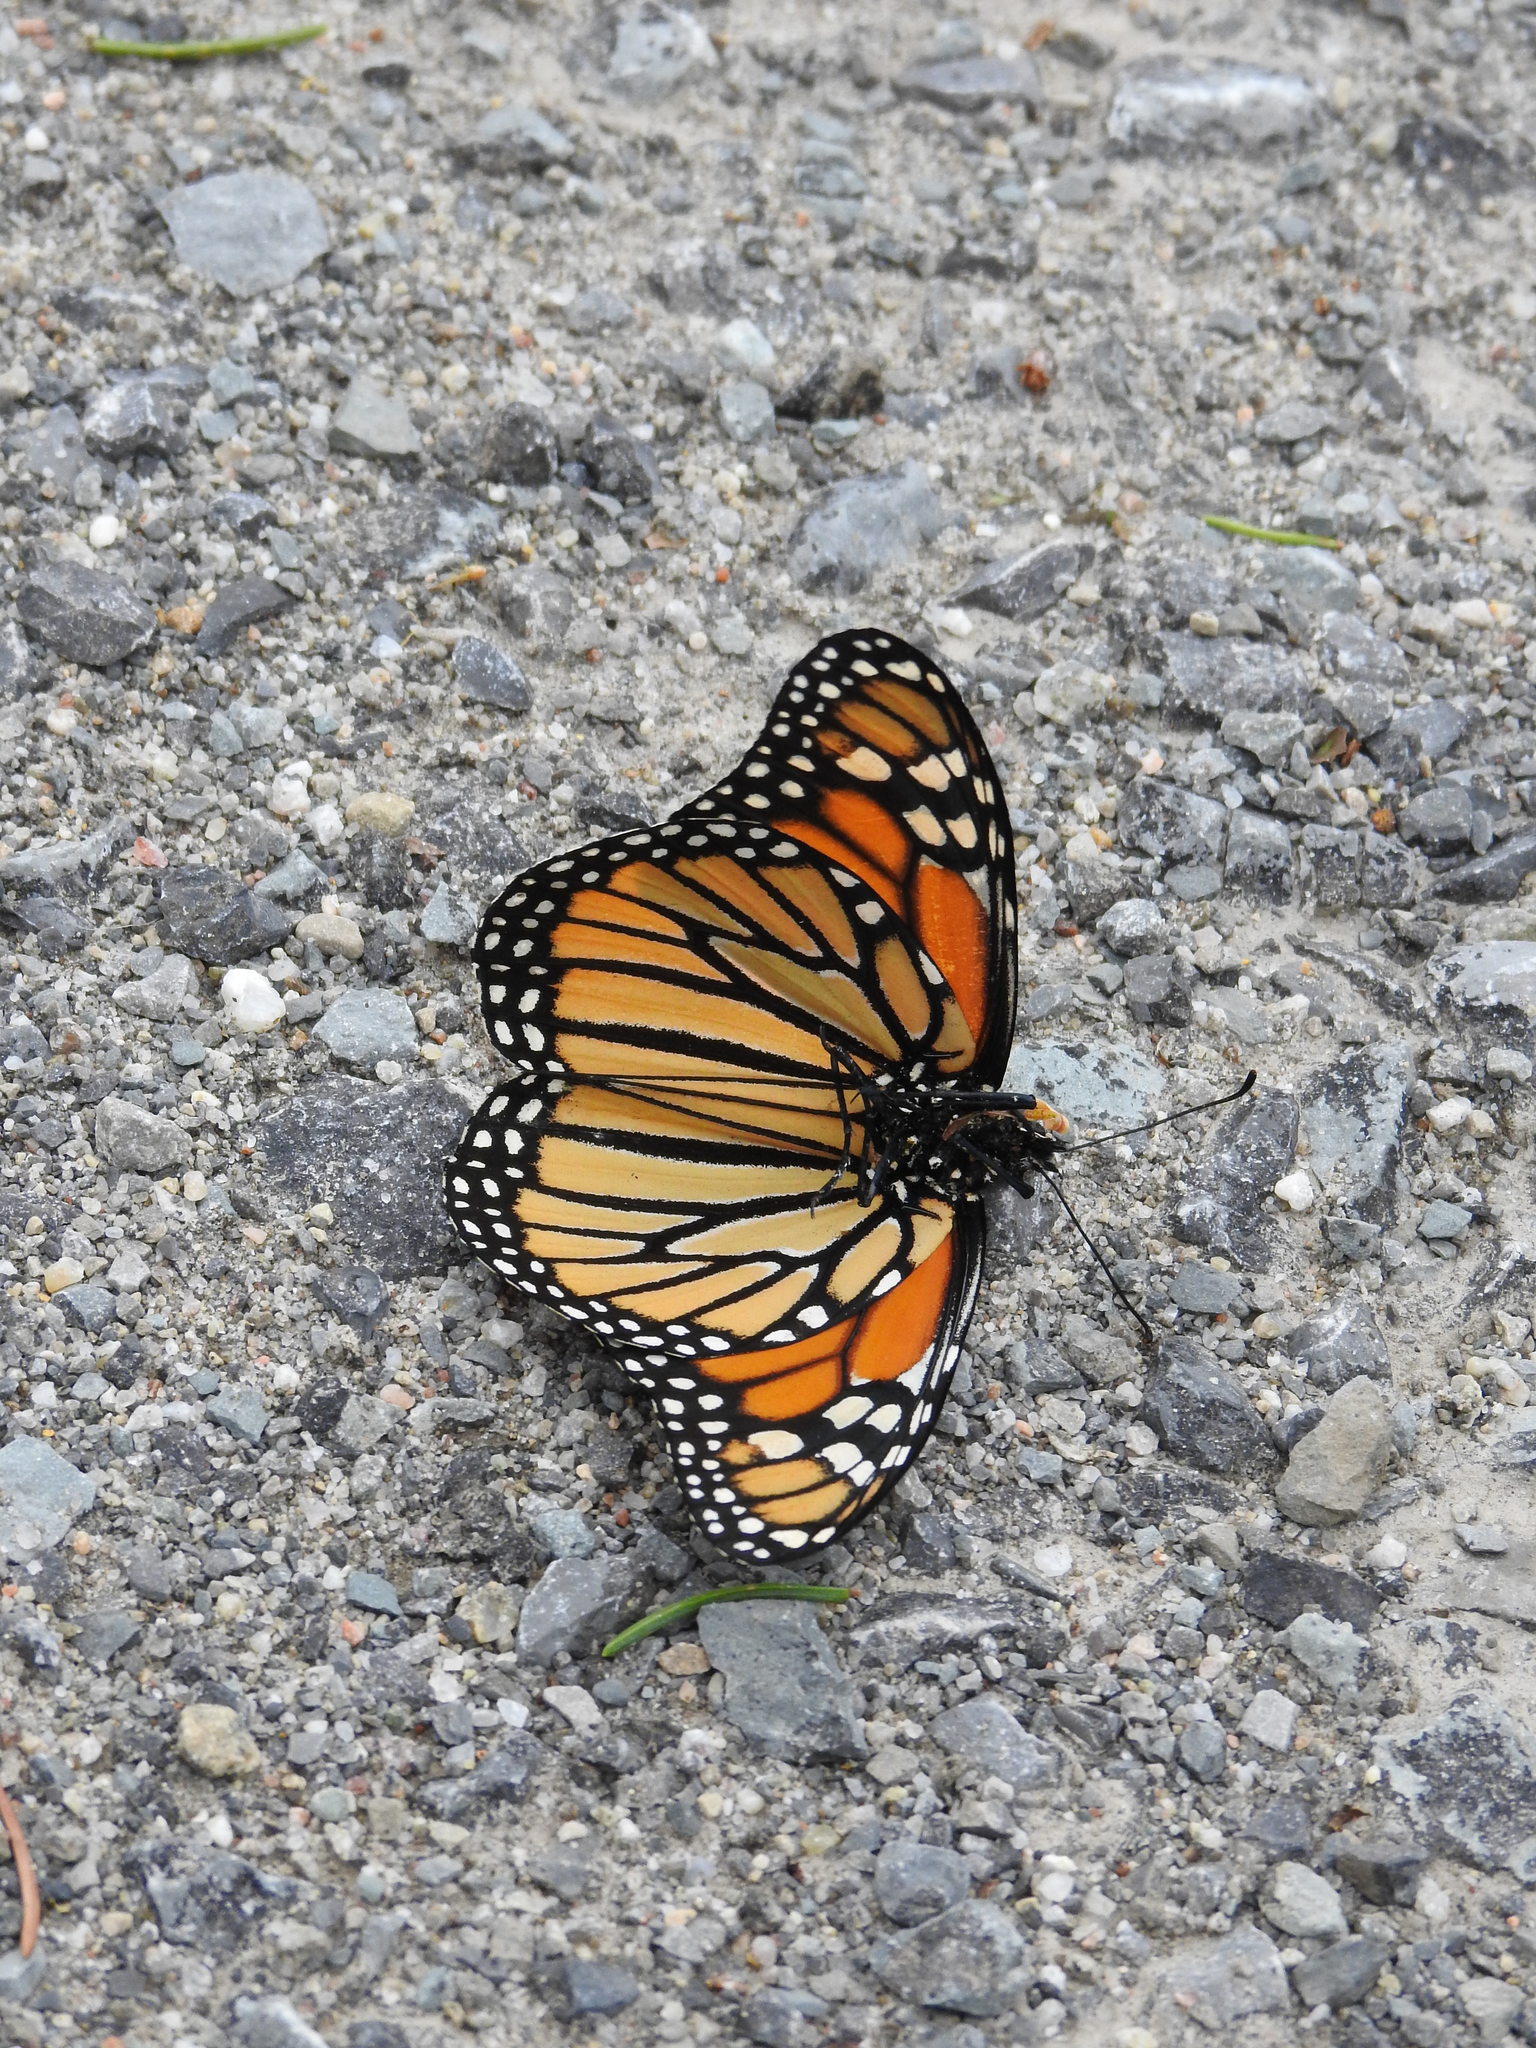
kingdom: Animalia
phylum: Arthropoda
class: Insecta
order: Lepidoptera
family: Nymphalidae
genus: Danaus
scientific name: Danaus plexippus
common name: Monarch
